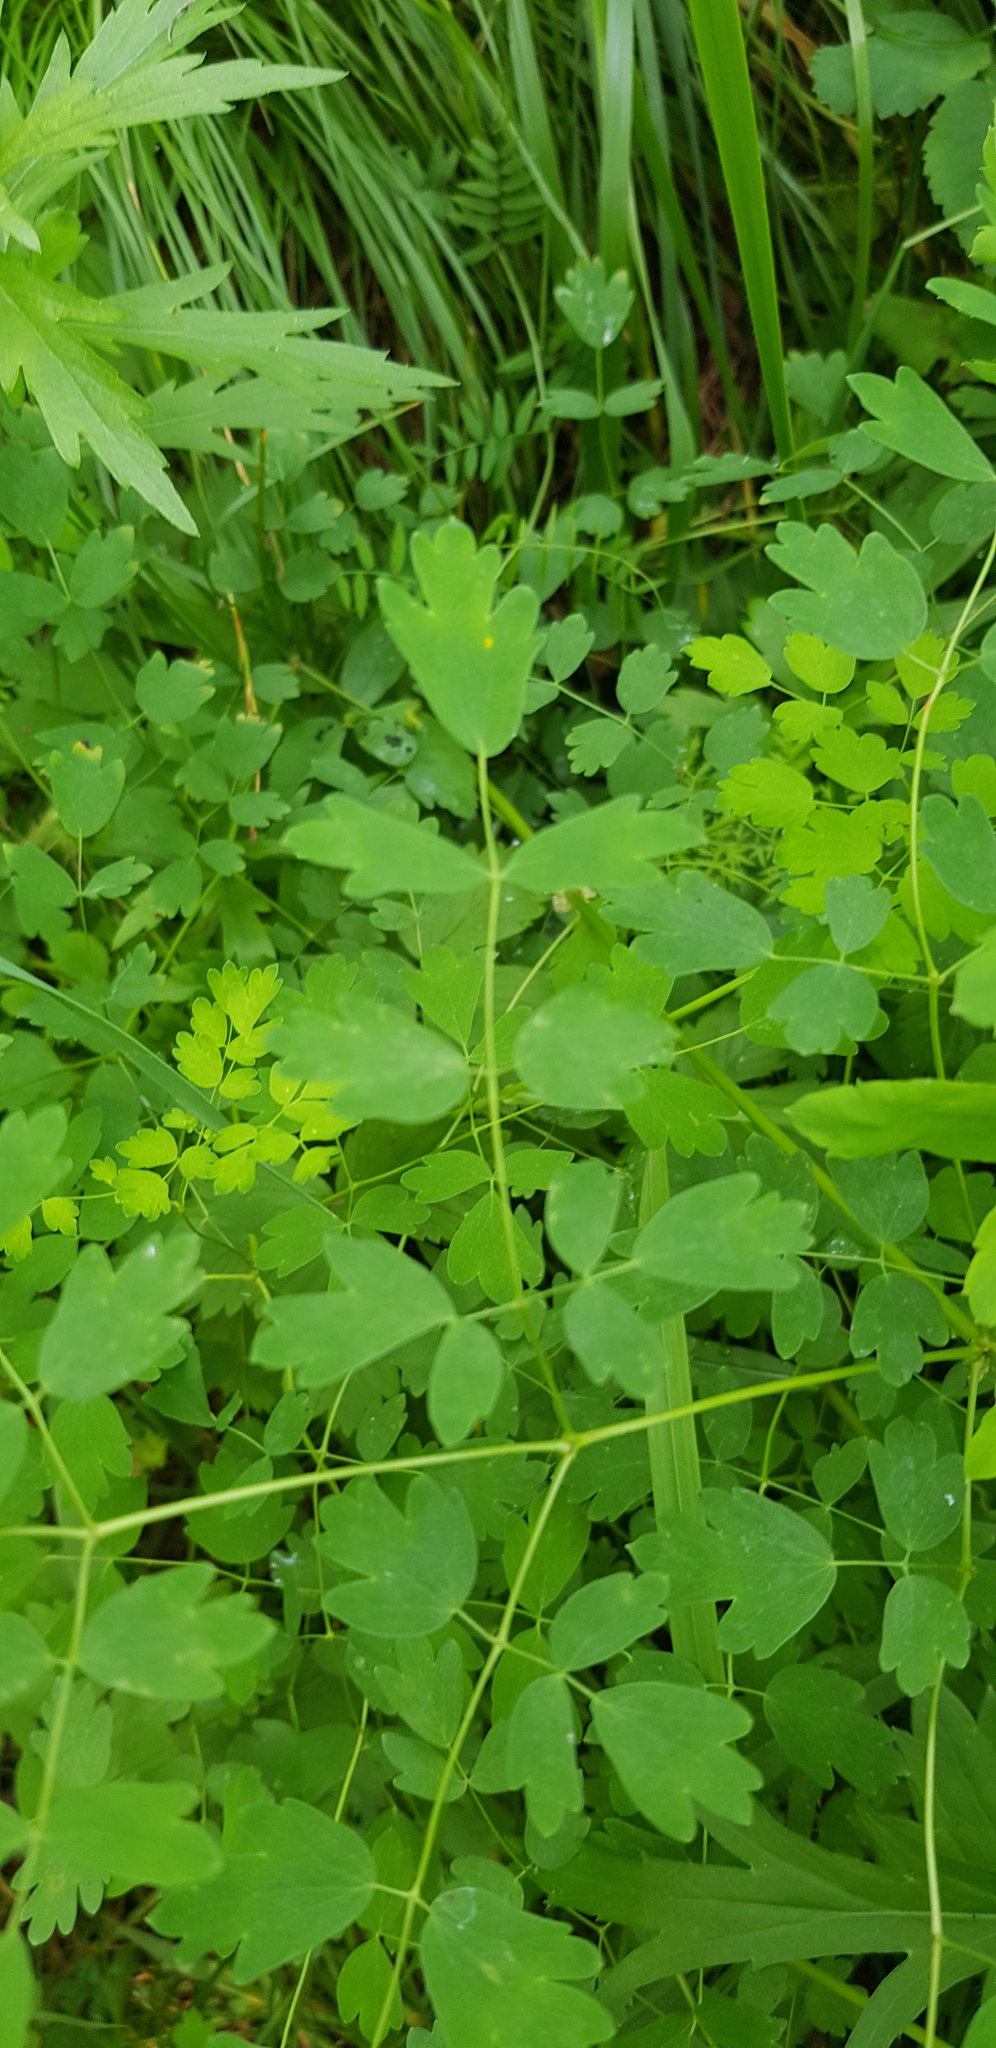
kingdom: Plantae
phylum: Tracheophyta
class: Magnoliopsida
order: Ranunculales
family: Ranunculaceae
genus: Thalictrum
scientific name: Thalictrum minus
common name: Lesser meadow-rue
